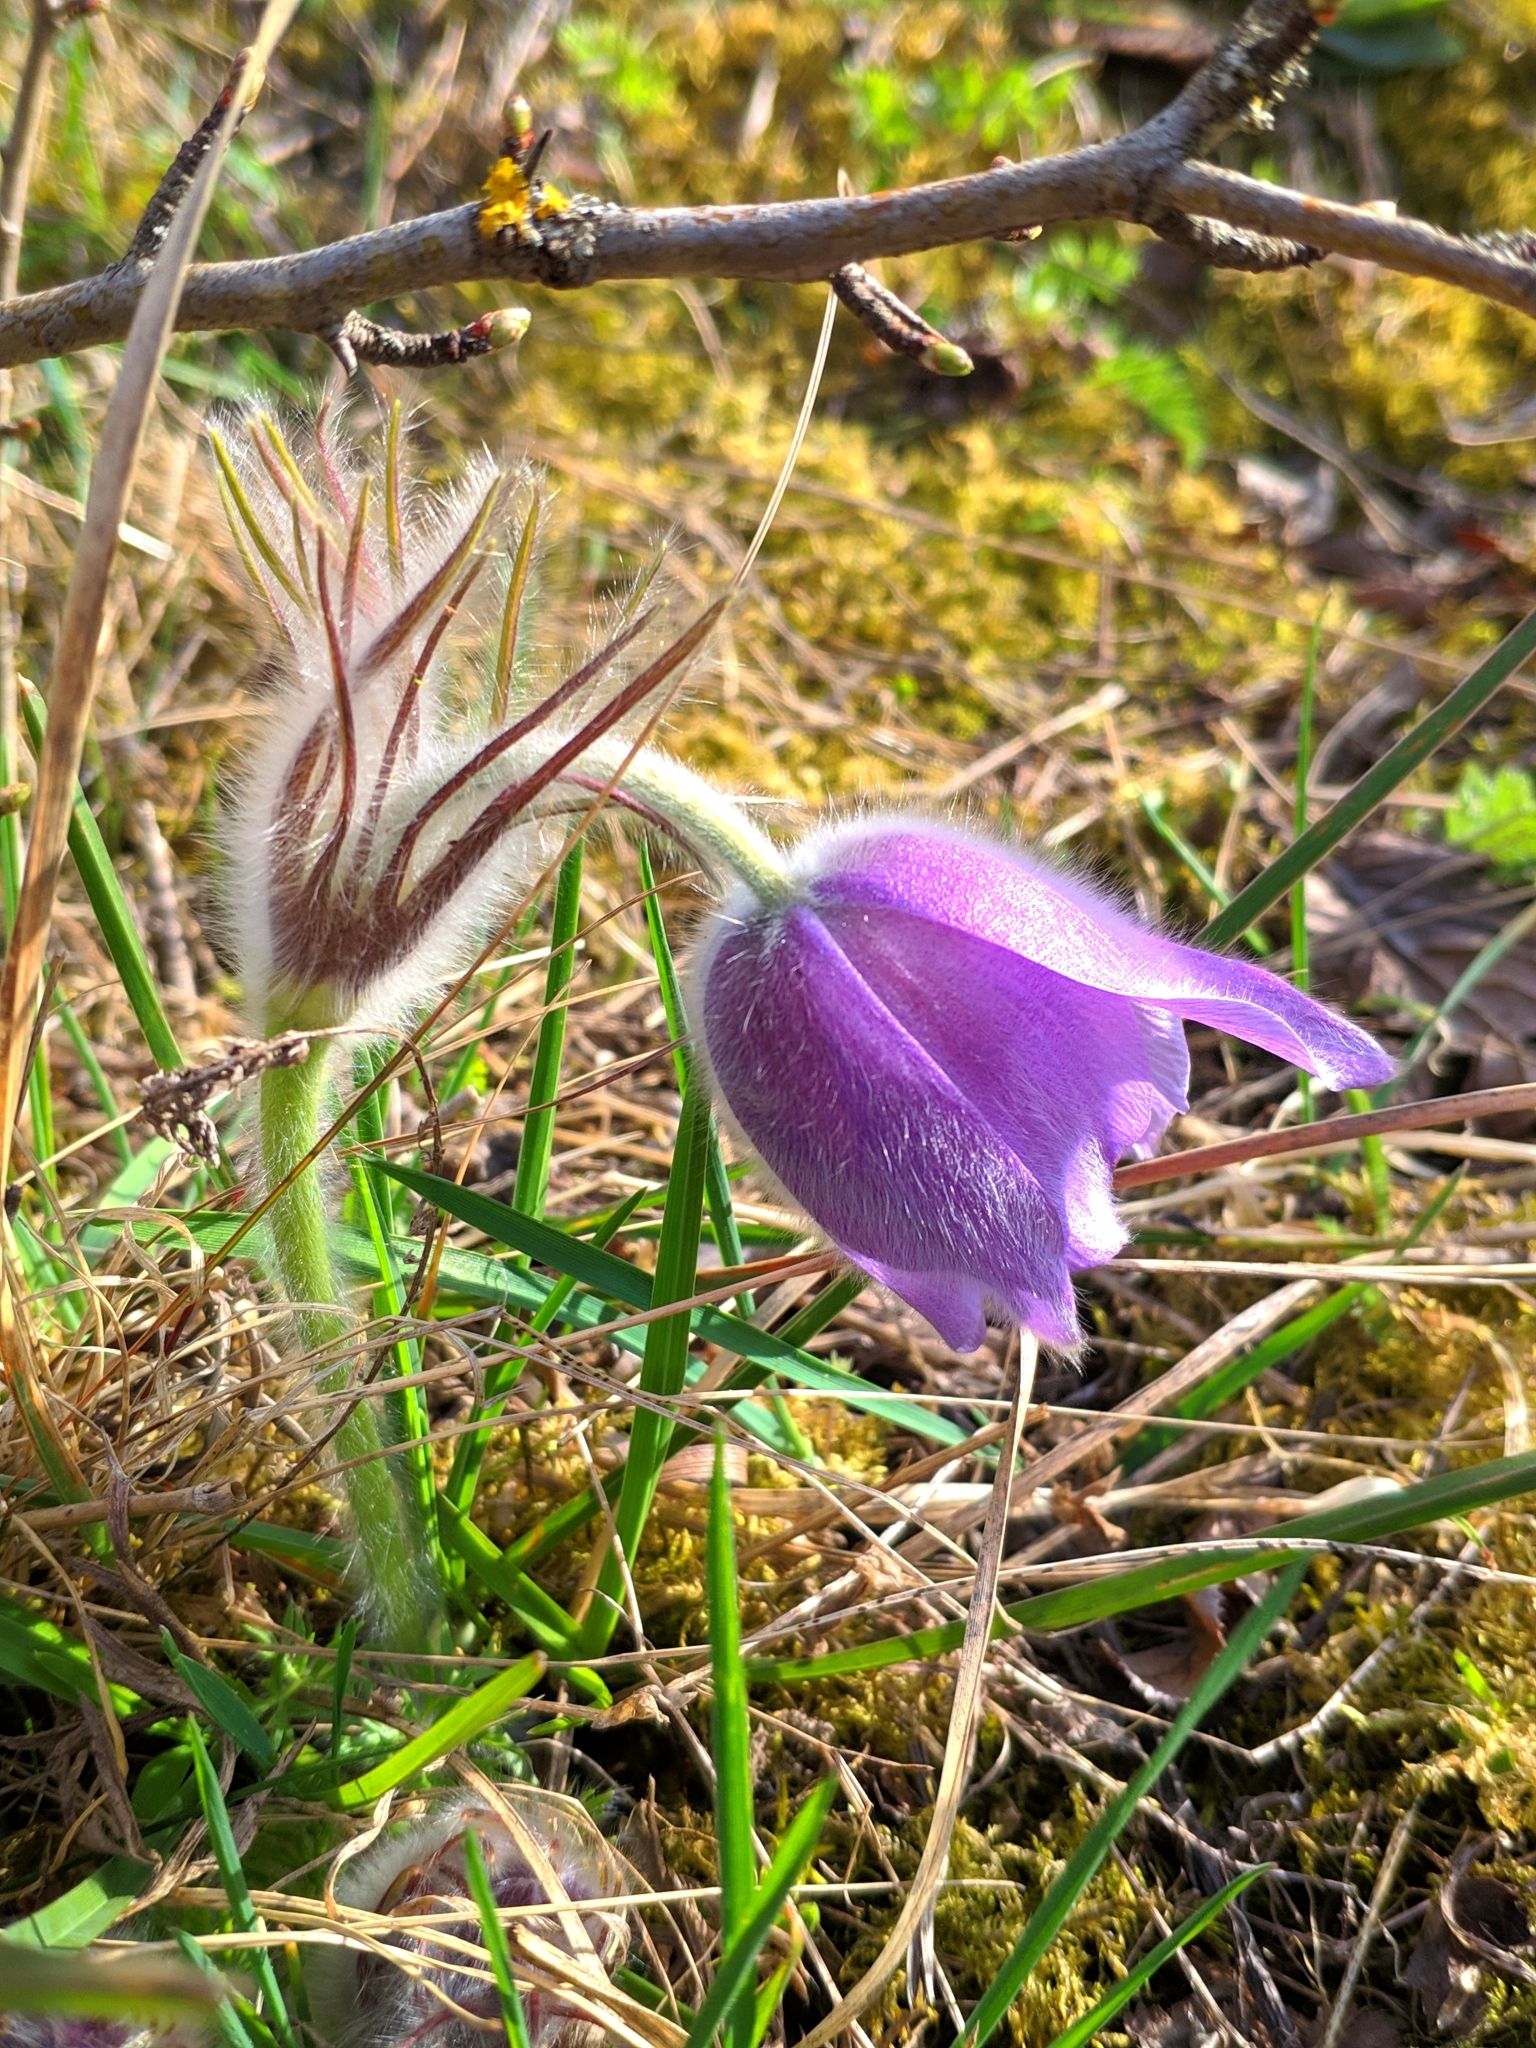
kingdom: Plantae
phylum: Tracheophyta
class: Magnoliopsida
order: Ranunculales
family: Ranunculaceae
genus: Pulsatilla
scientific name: Pulsatilla grandis
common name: Greater pasque flower
